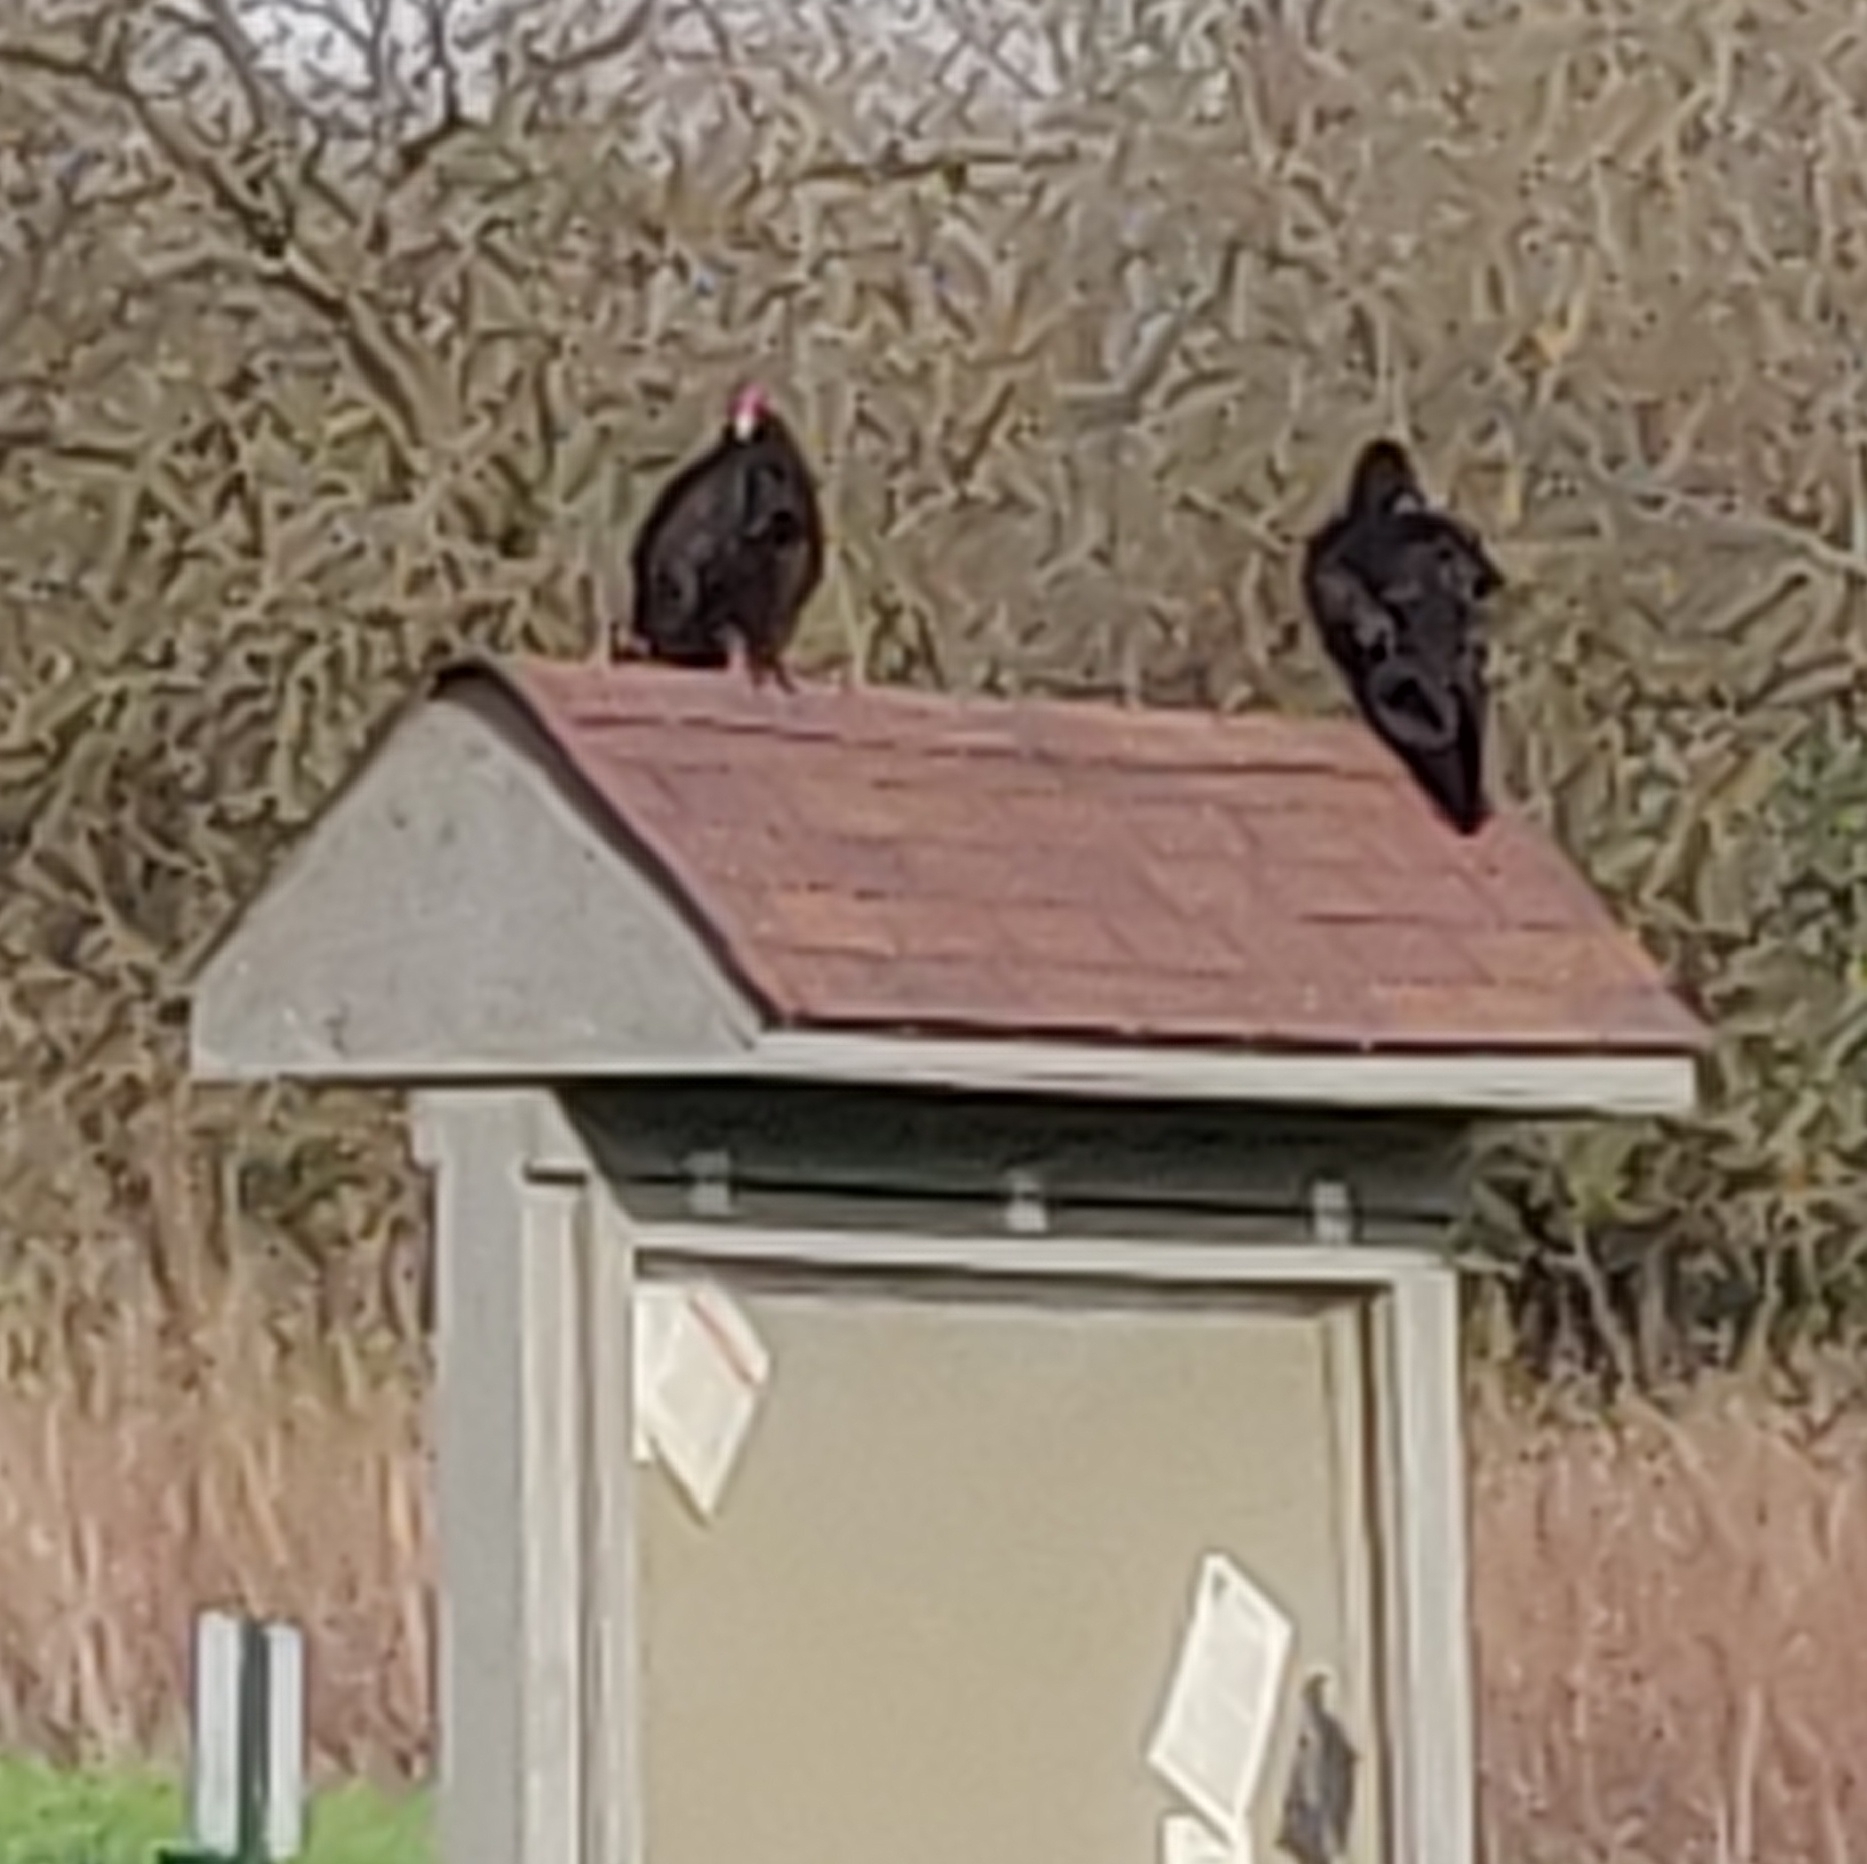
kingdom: Animalia
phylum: Chordata
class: Aves
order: Accipitriformes
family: Cathartidae
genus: Cathartes
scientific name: Cathartes aura
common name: Turkey vulture
